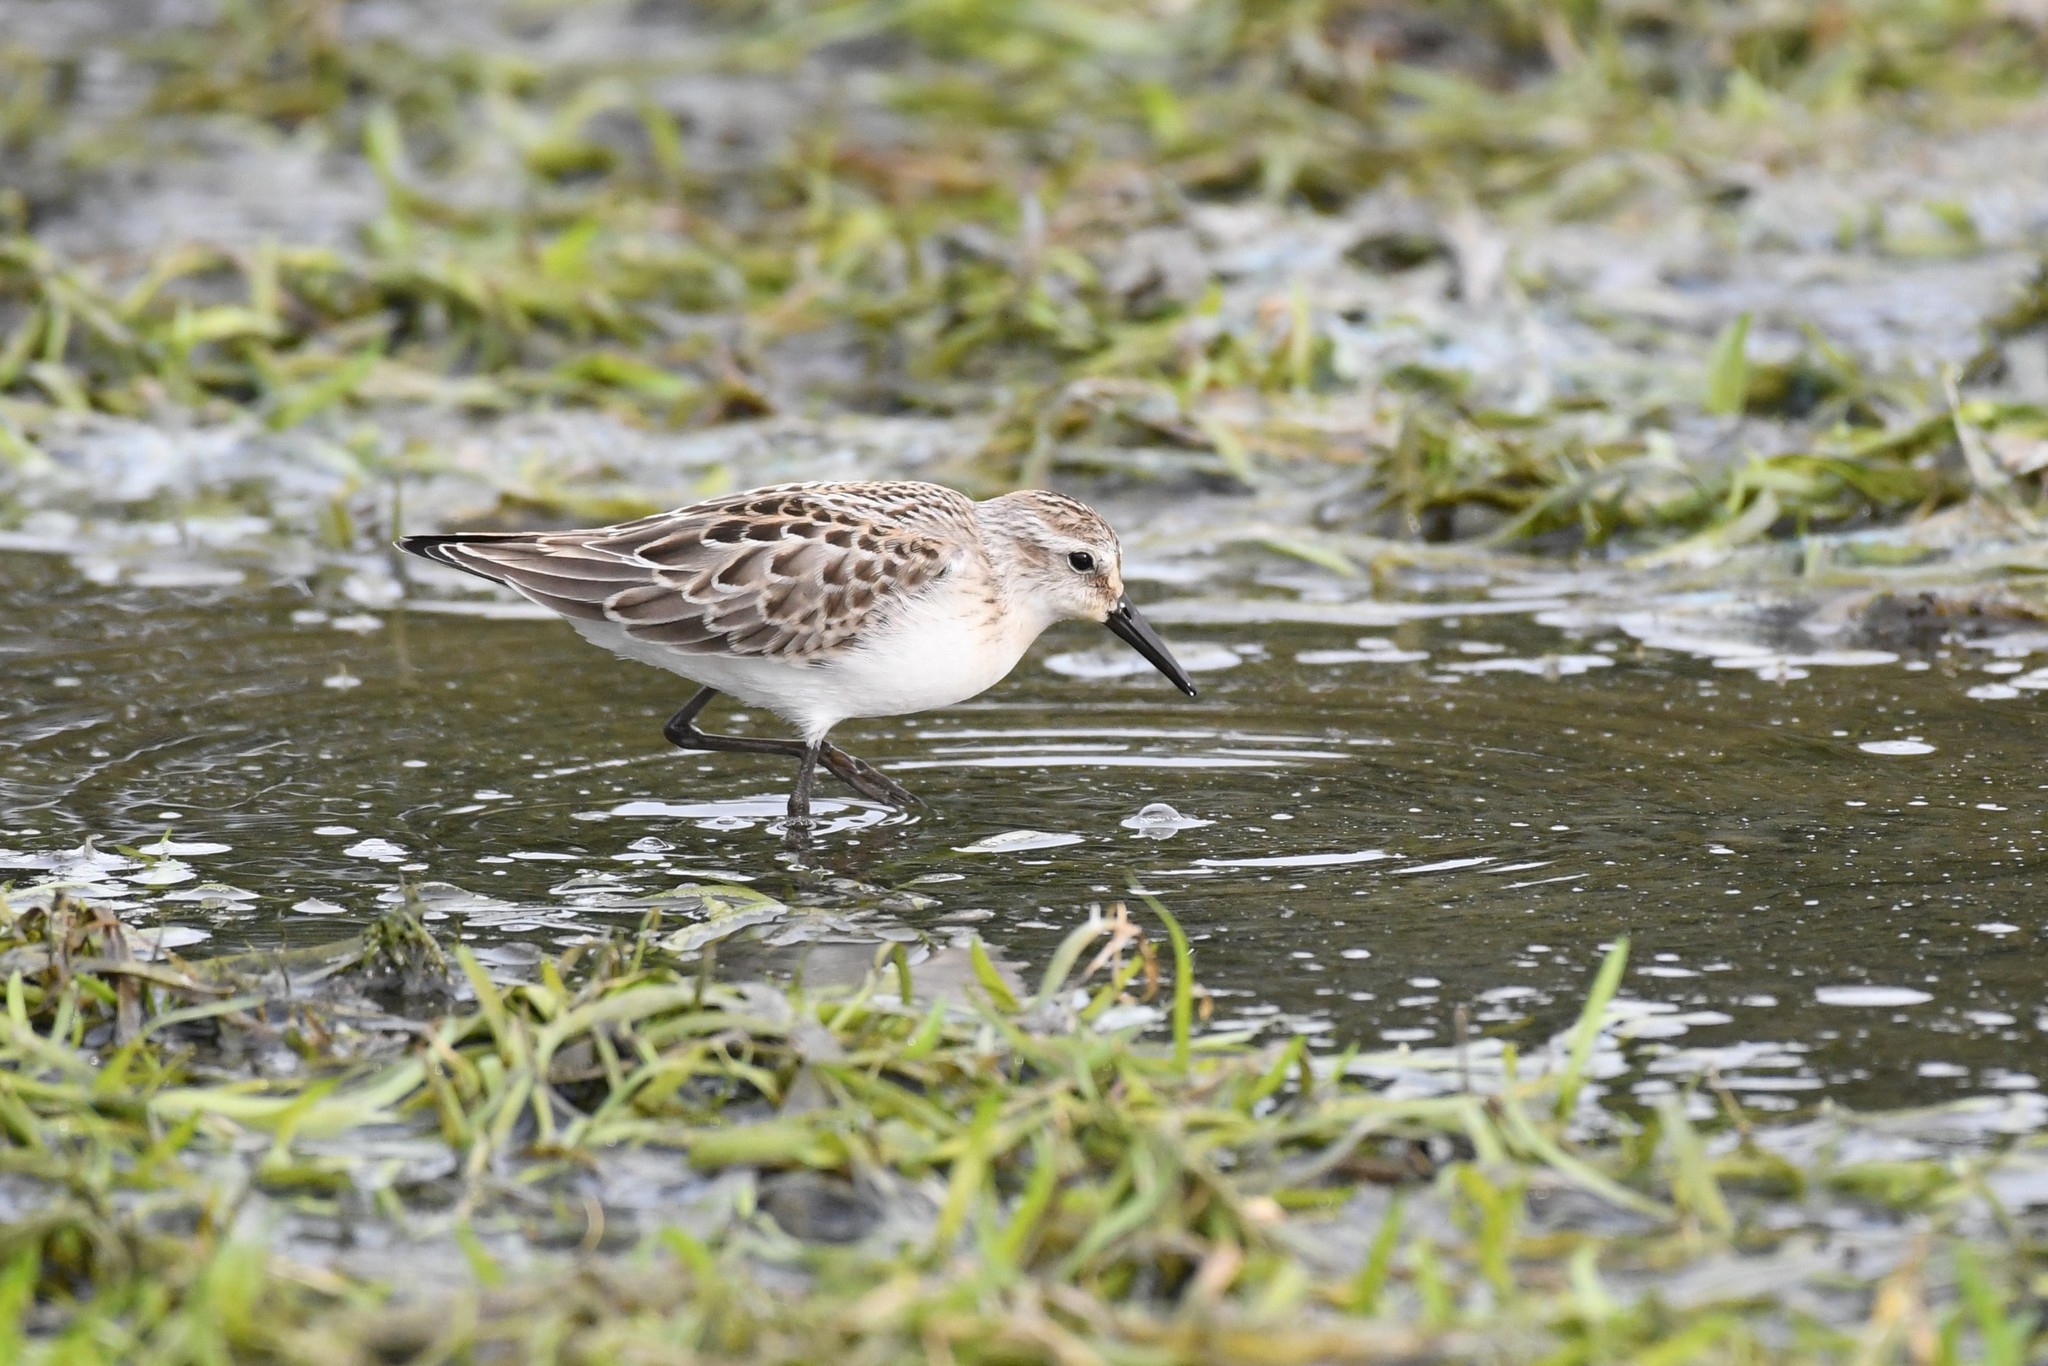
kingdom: Animalia
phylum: Chordata
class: Aves
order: Charadriiformes
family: Scolopacidae
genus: Calidris
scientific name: Calidris pusilla
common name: Semipalmated sandpiper
